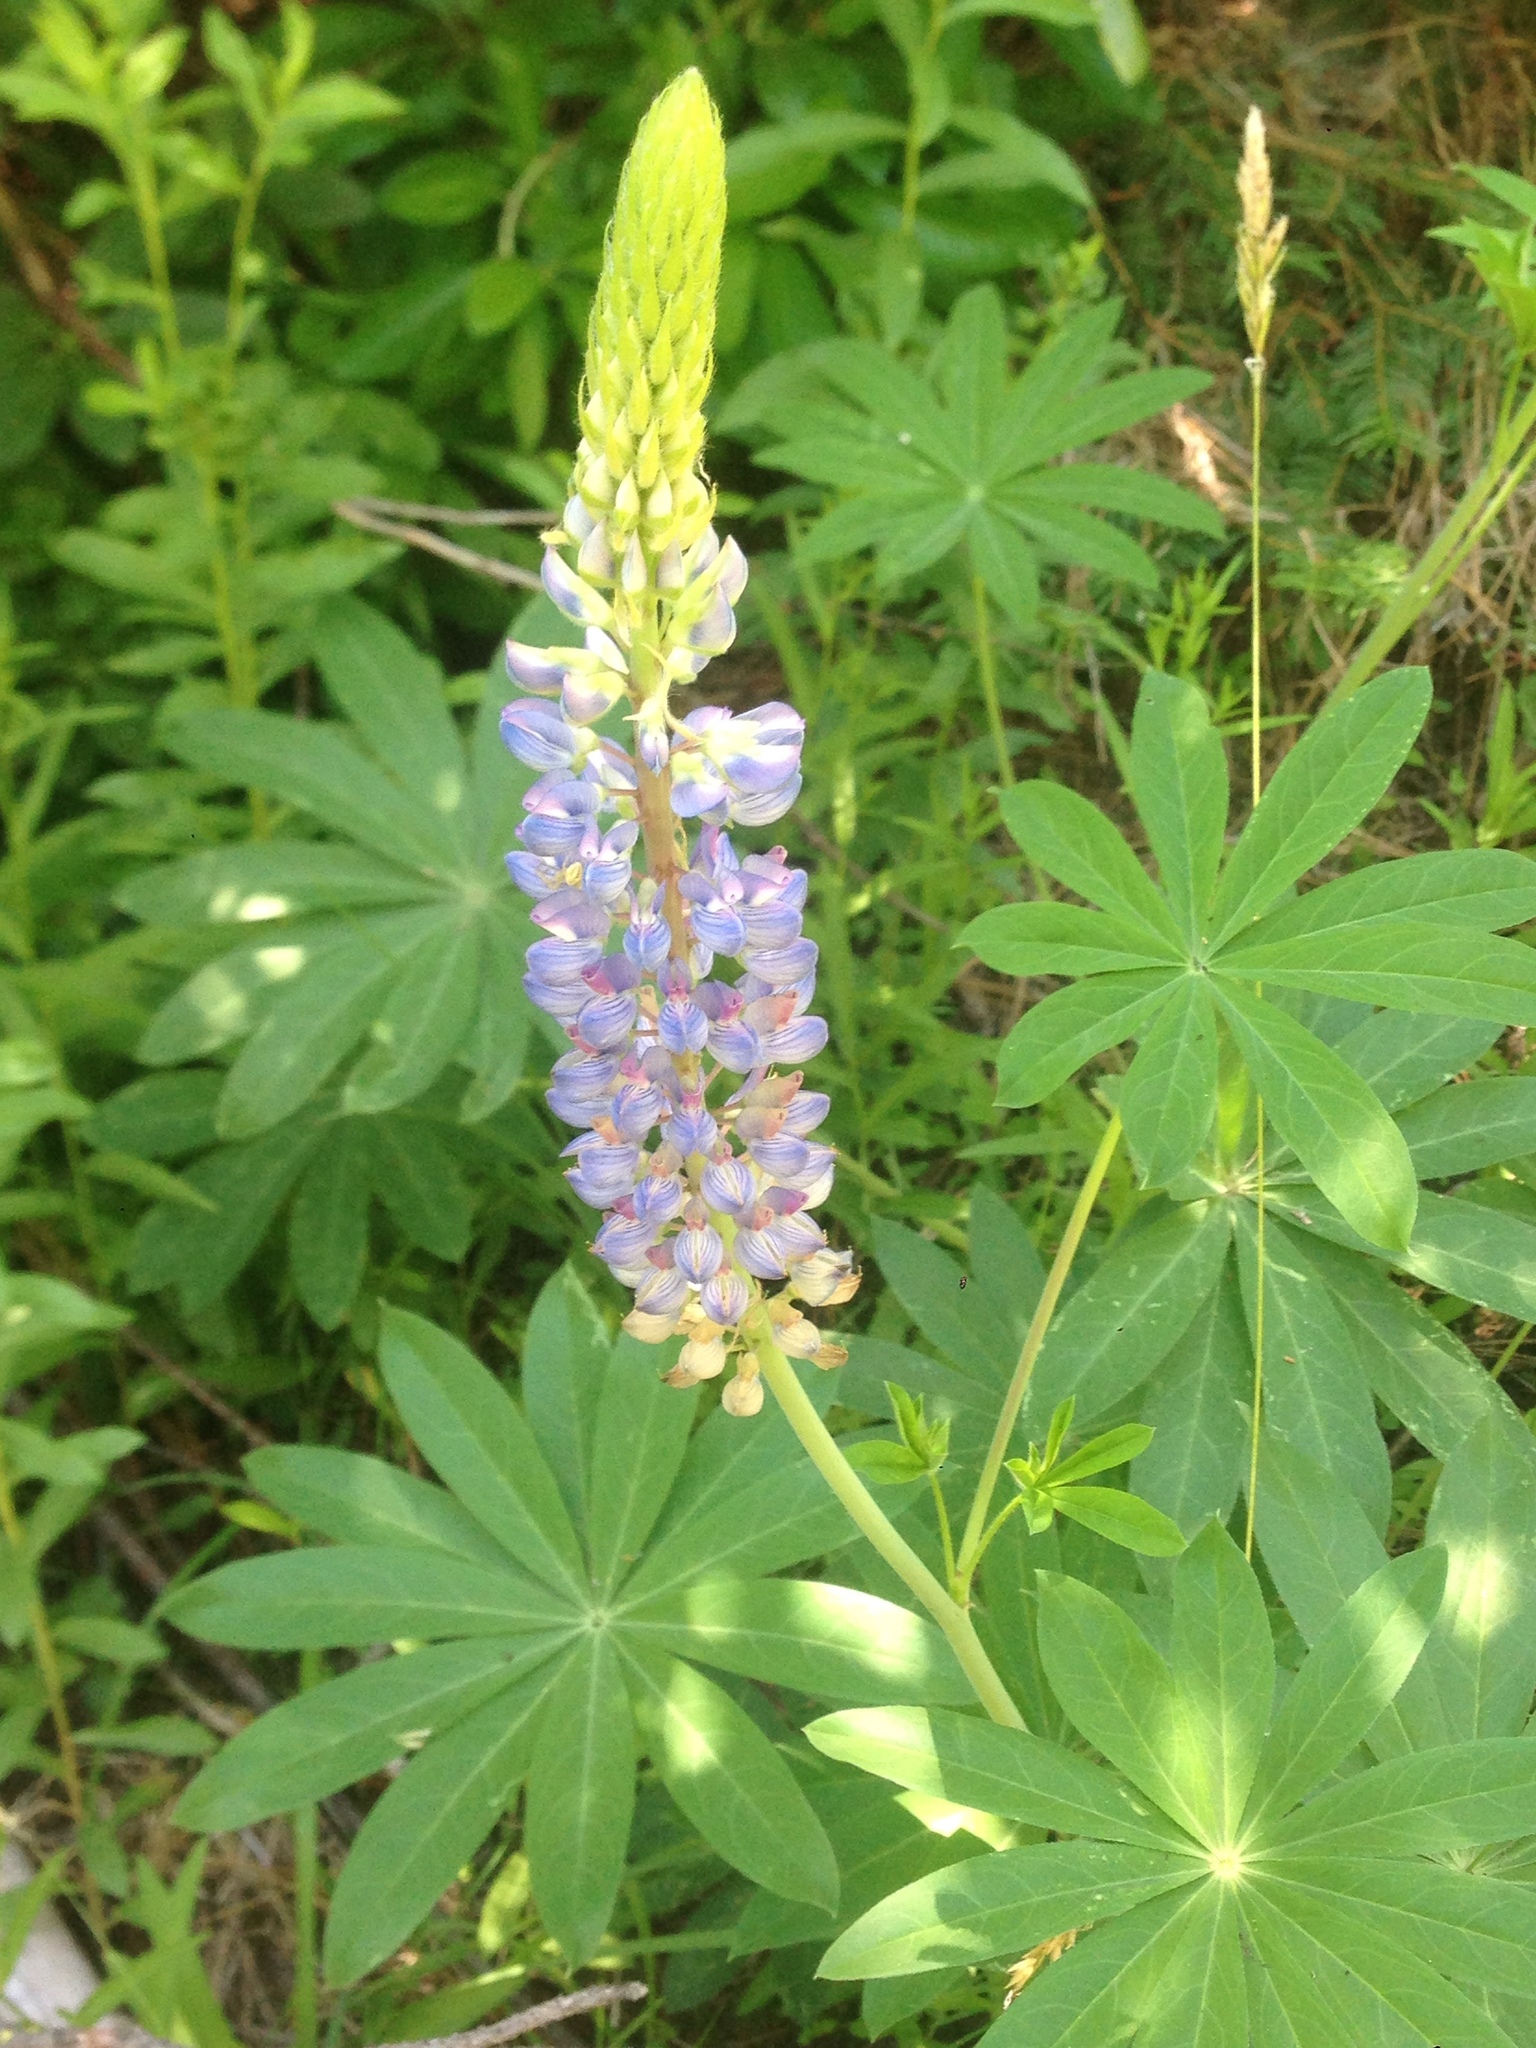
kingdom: Plantae
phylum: Tracheophyta
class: Magnoliopsida
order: Fabales
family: Fabaceae
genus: Lupinus
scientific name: Lupinus polyphyllus
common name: Garden lupin
